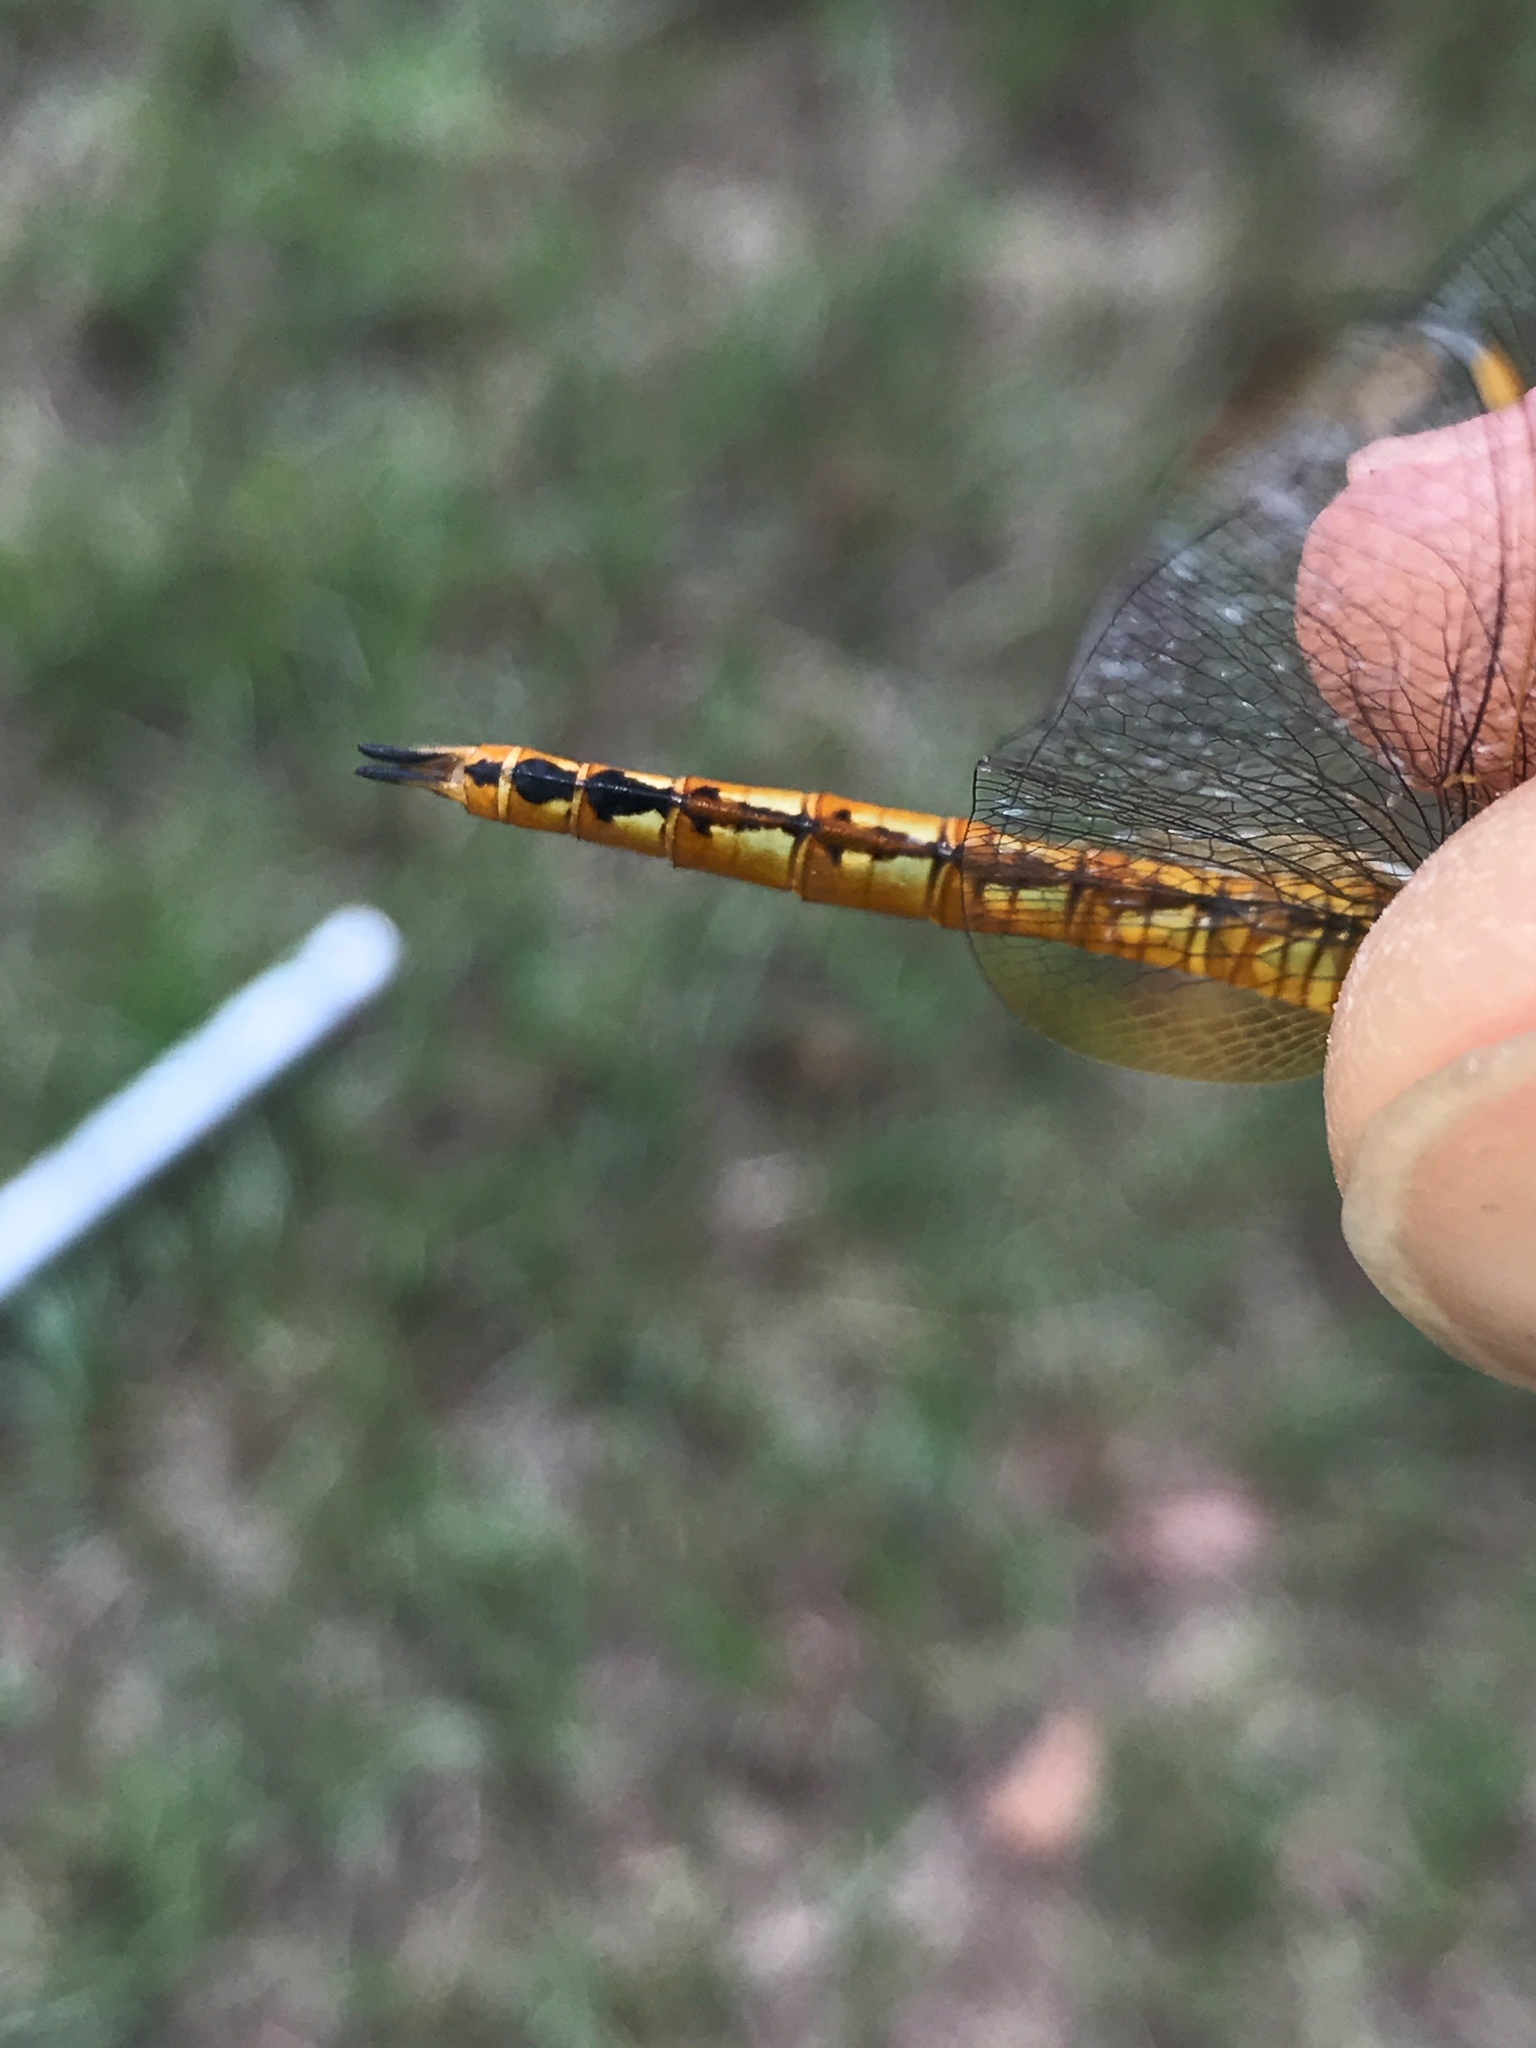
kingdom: Animalia
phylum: Arthropoda
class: Insecta
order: Odonata
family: Libellulidae
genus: Pantala
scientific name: Pantala flavescens
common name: Wandering glider
